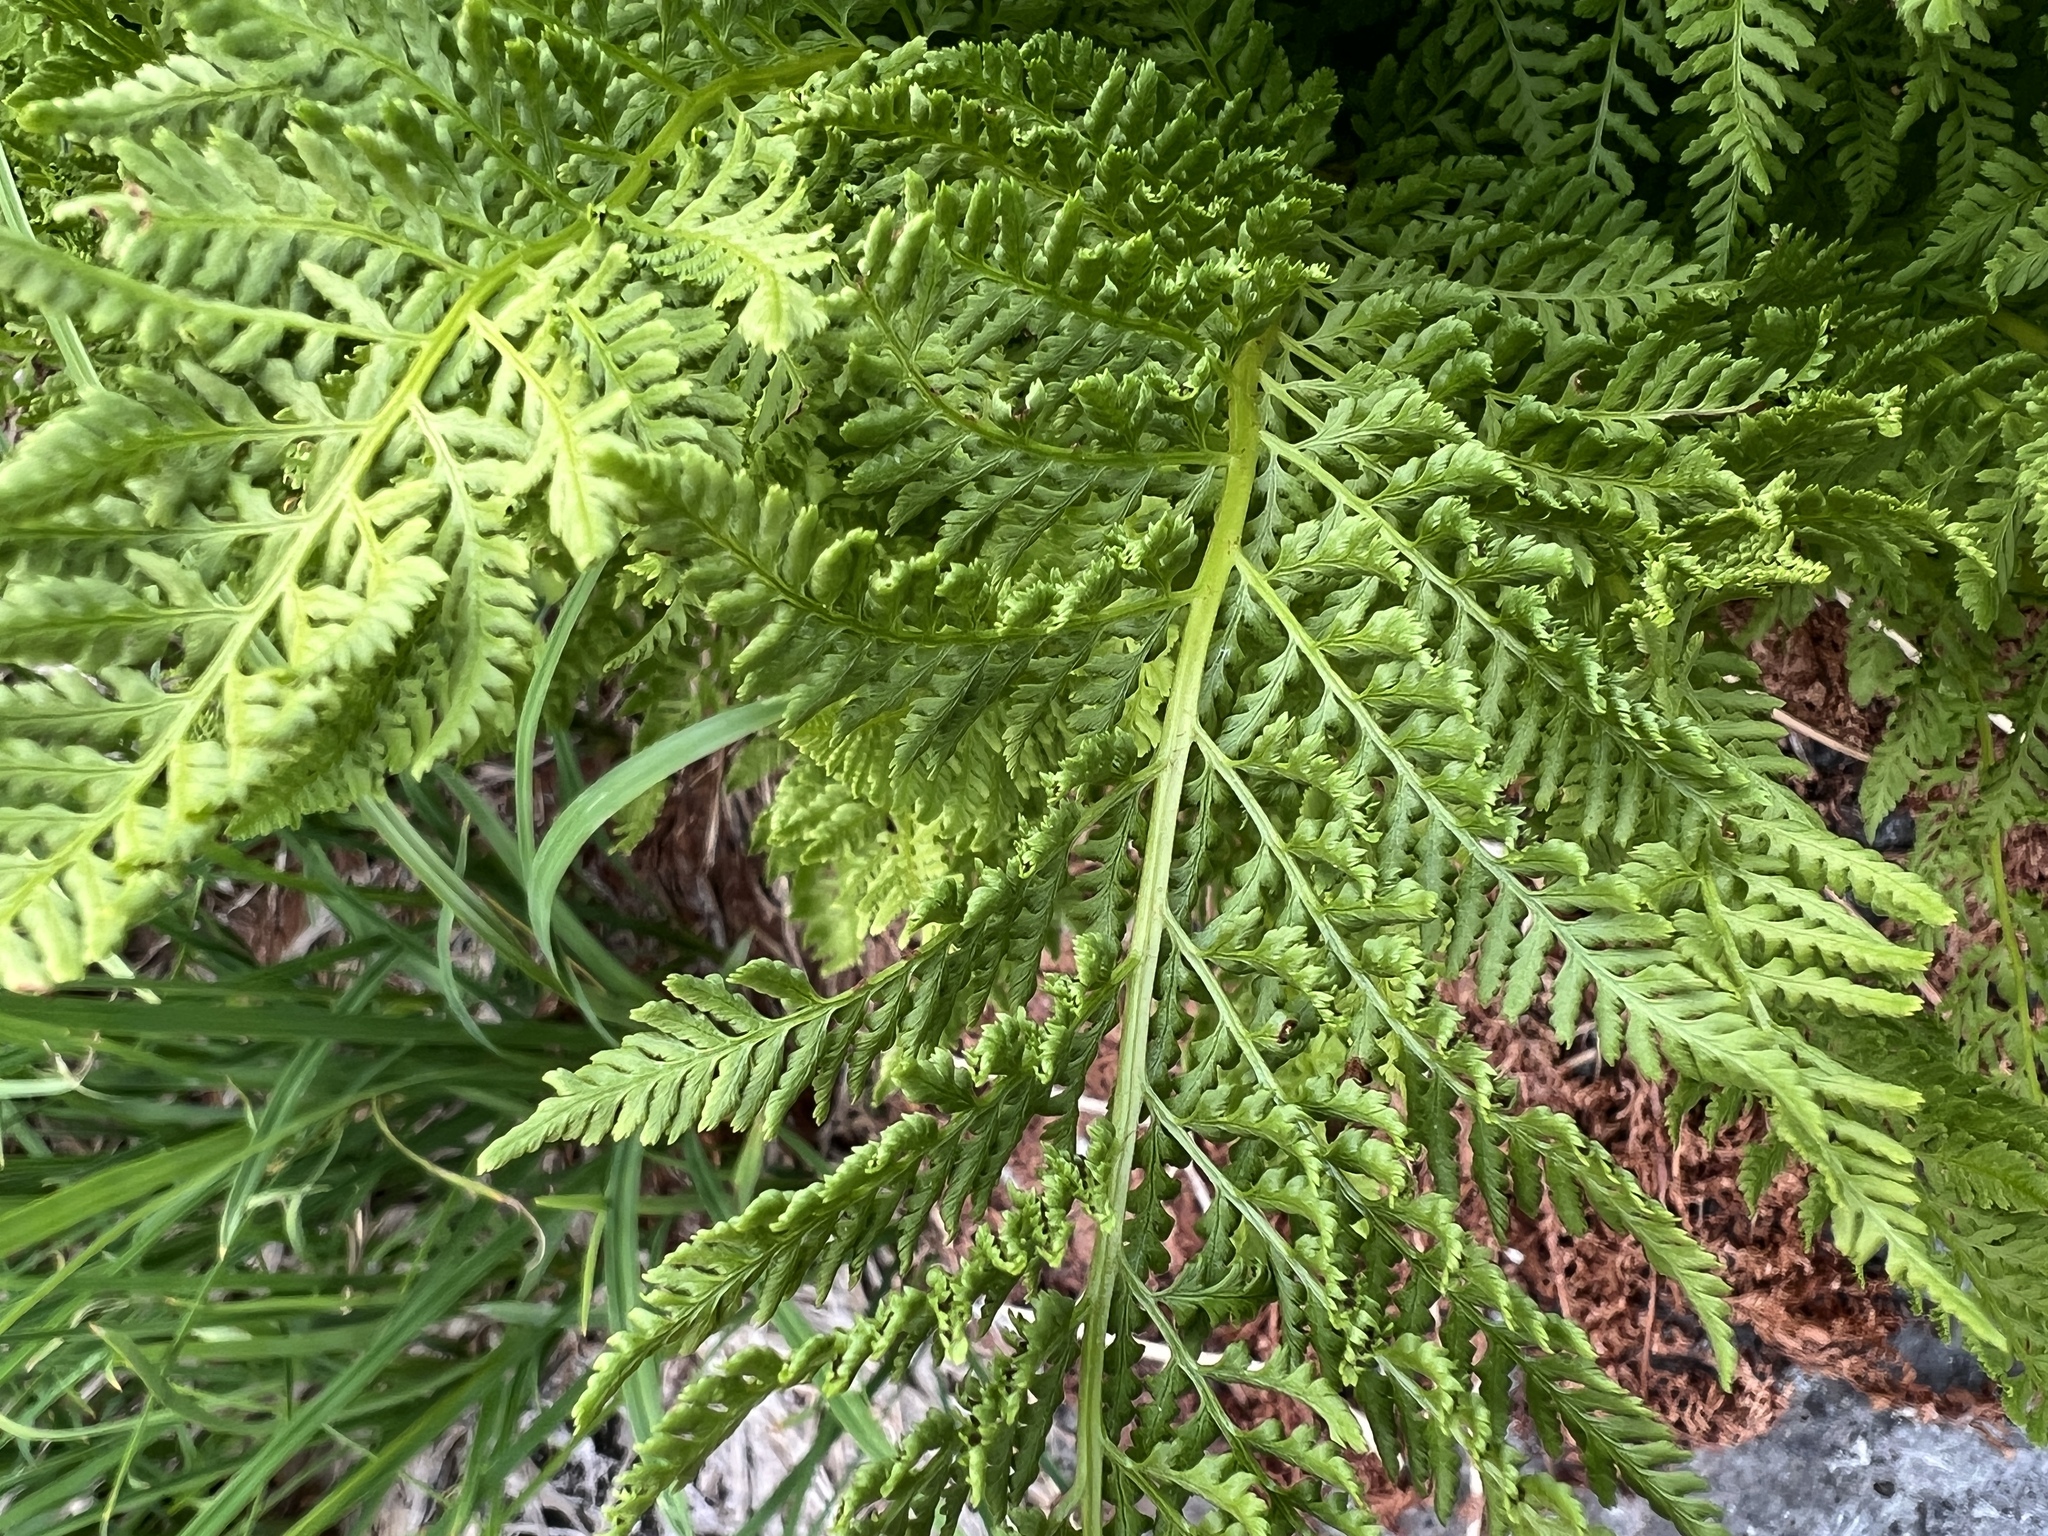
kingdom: Plantae
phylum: Tracheophyta
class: Polypodiopsida
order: Polypodiales
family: Athyriaceae
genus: Athyrium
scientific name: Athyrium americanum
